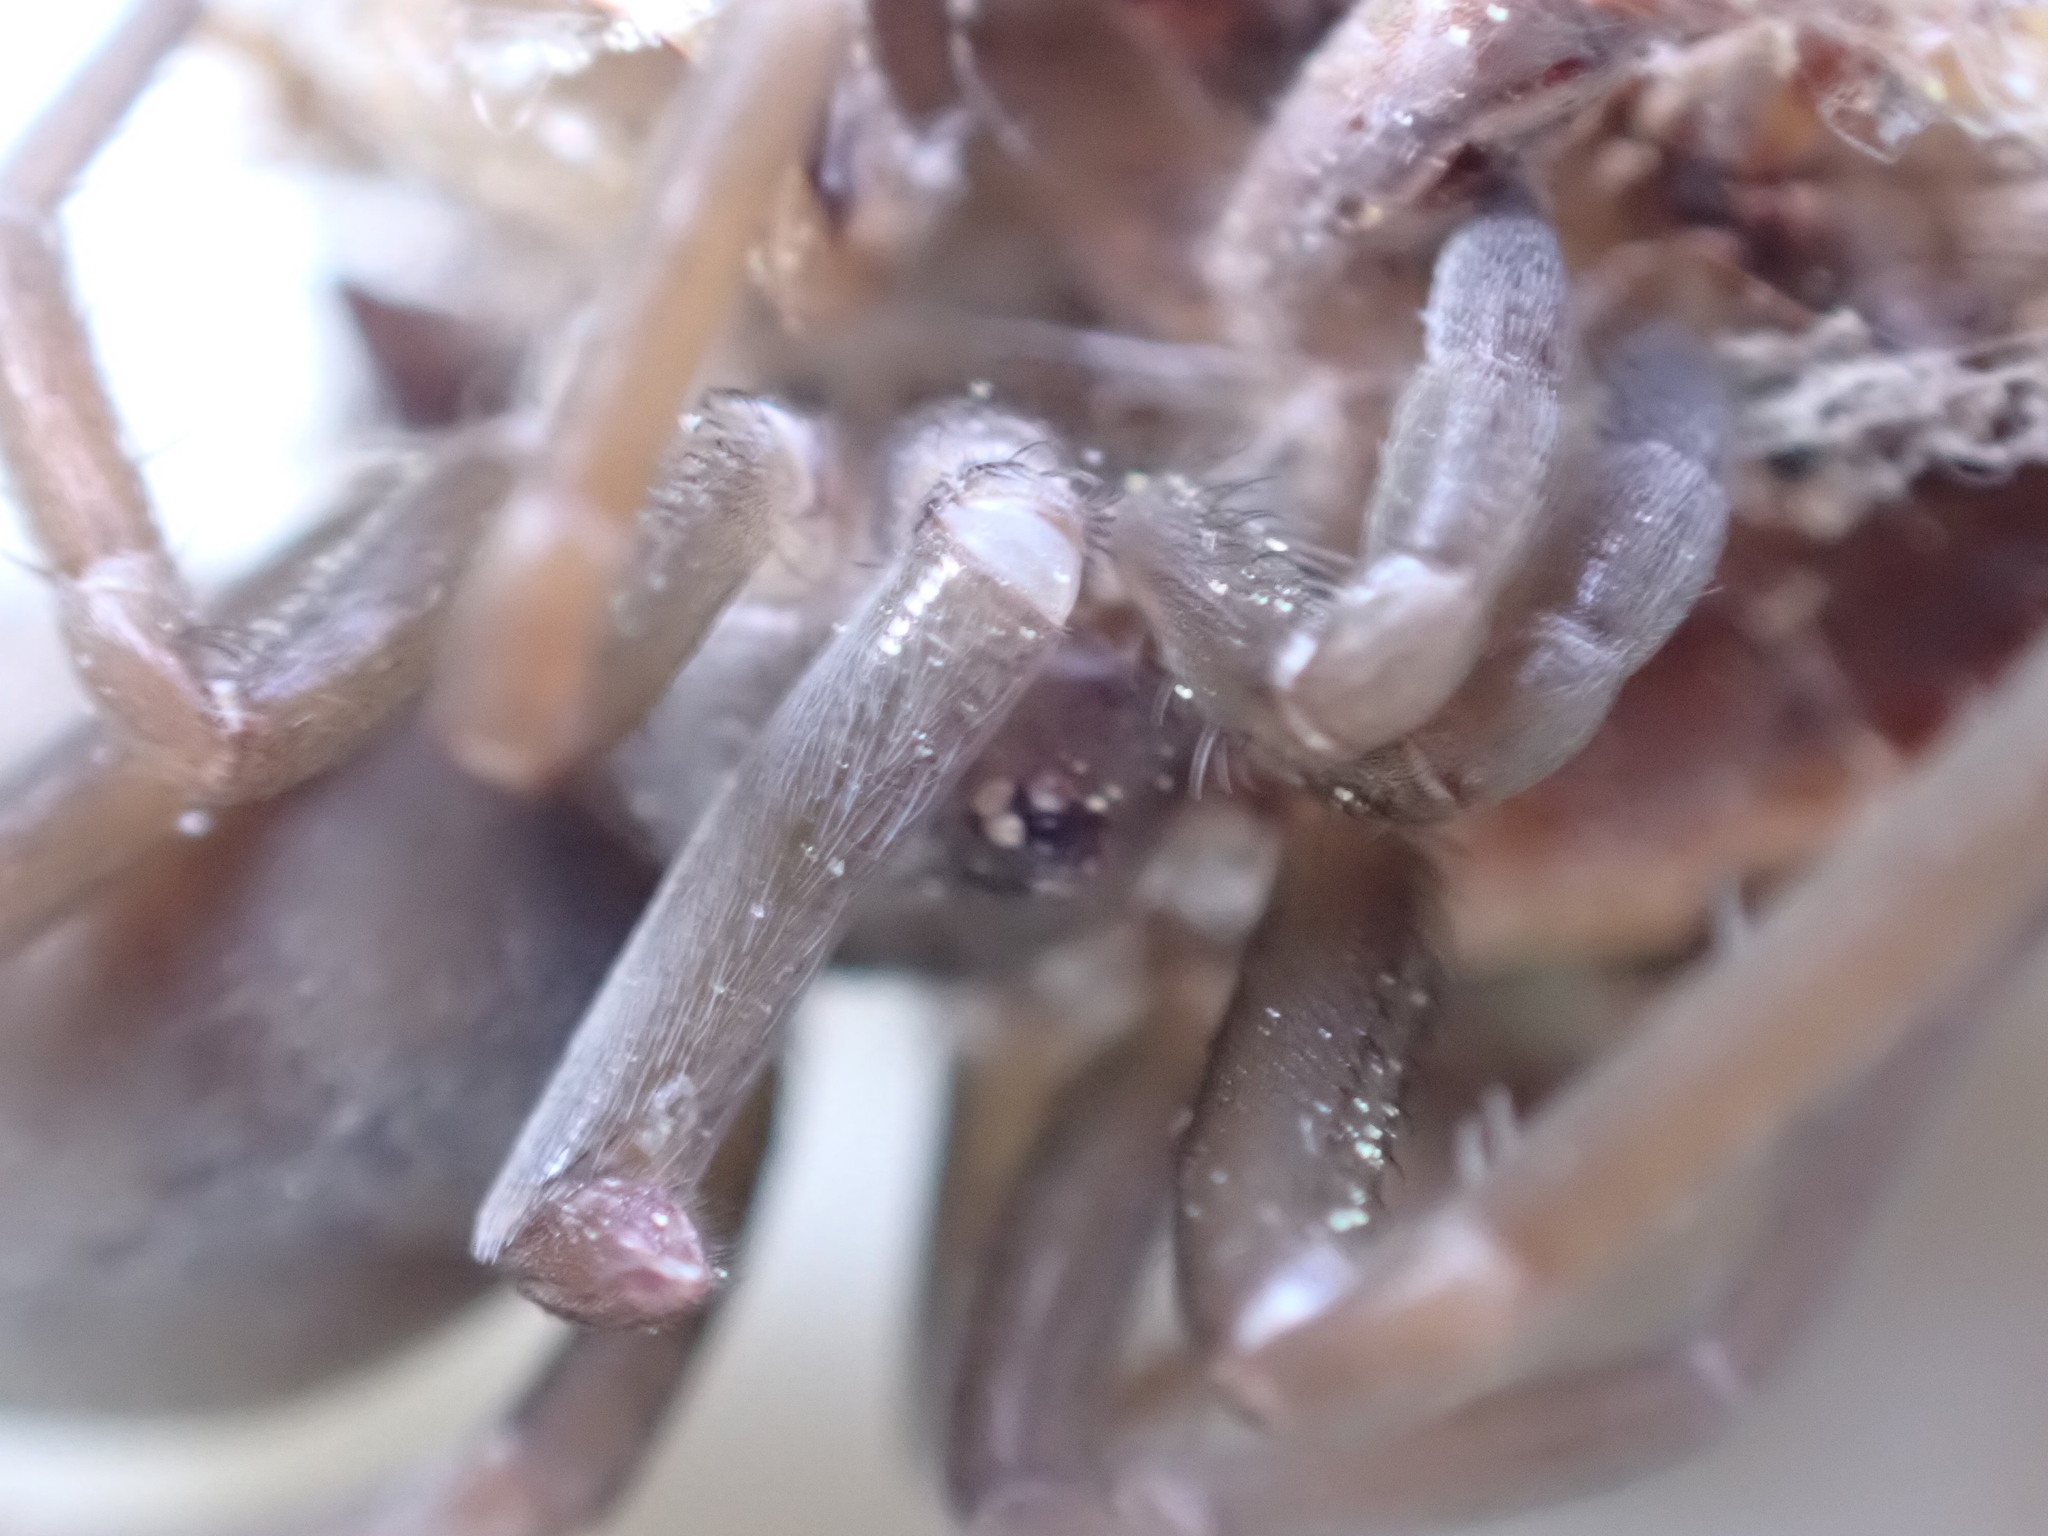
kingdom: Animalia
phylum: Arthropoda
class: Arachnida
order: Araneae
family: Filistatidae
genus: Kukulcania
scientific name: Kukulcania hibernalis
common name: Crevice weaver
